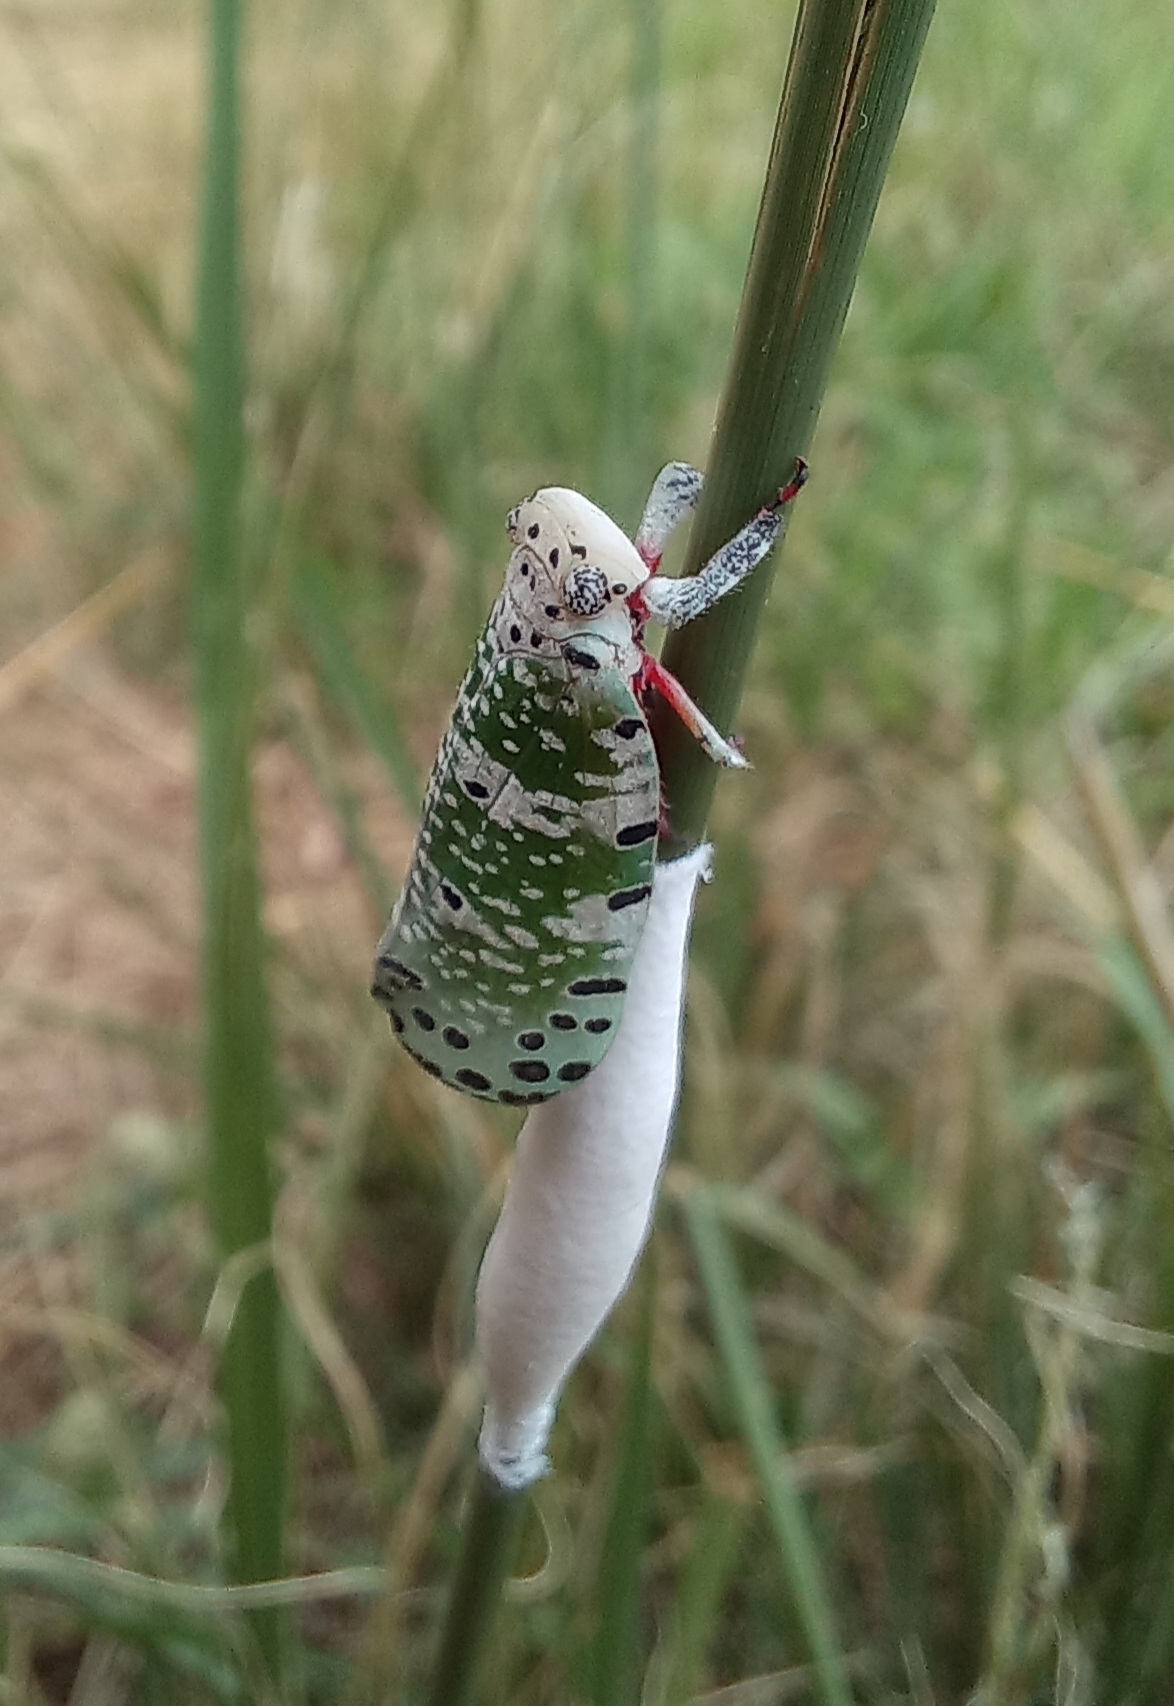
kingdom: Animalia
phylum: Arthropoda
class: Insecta
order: Hemiptera
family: Eurybrachidae
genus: Paropioxys
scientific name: Paropioxys jucundus
